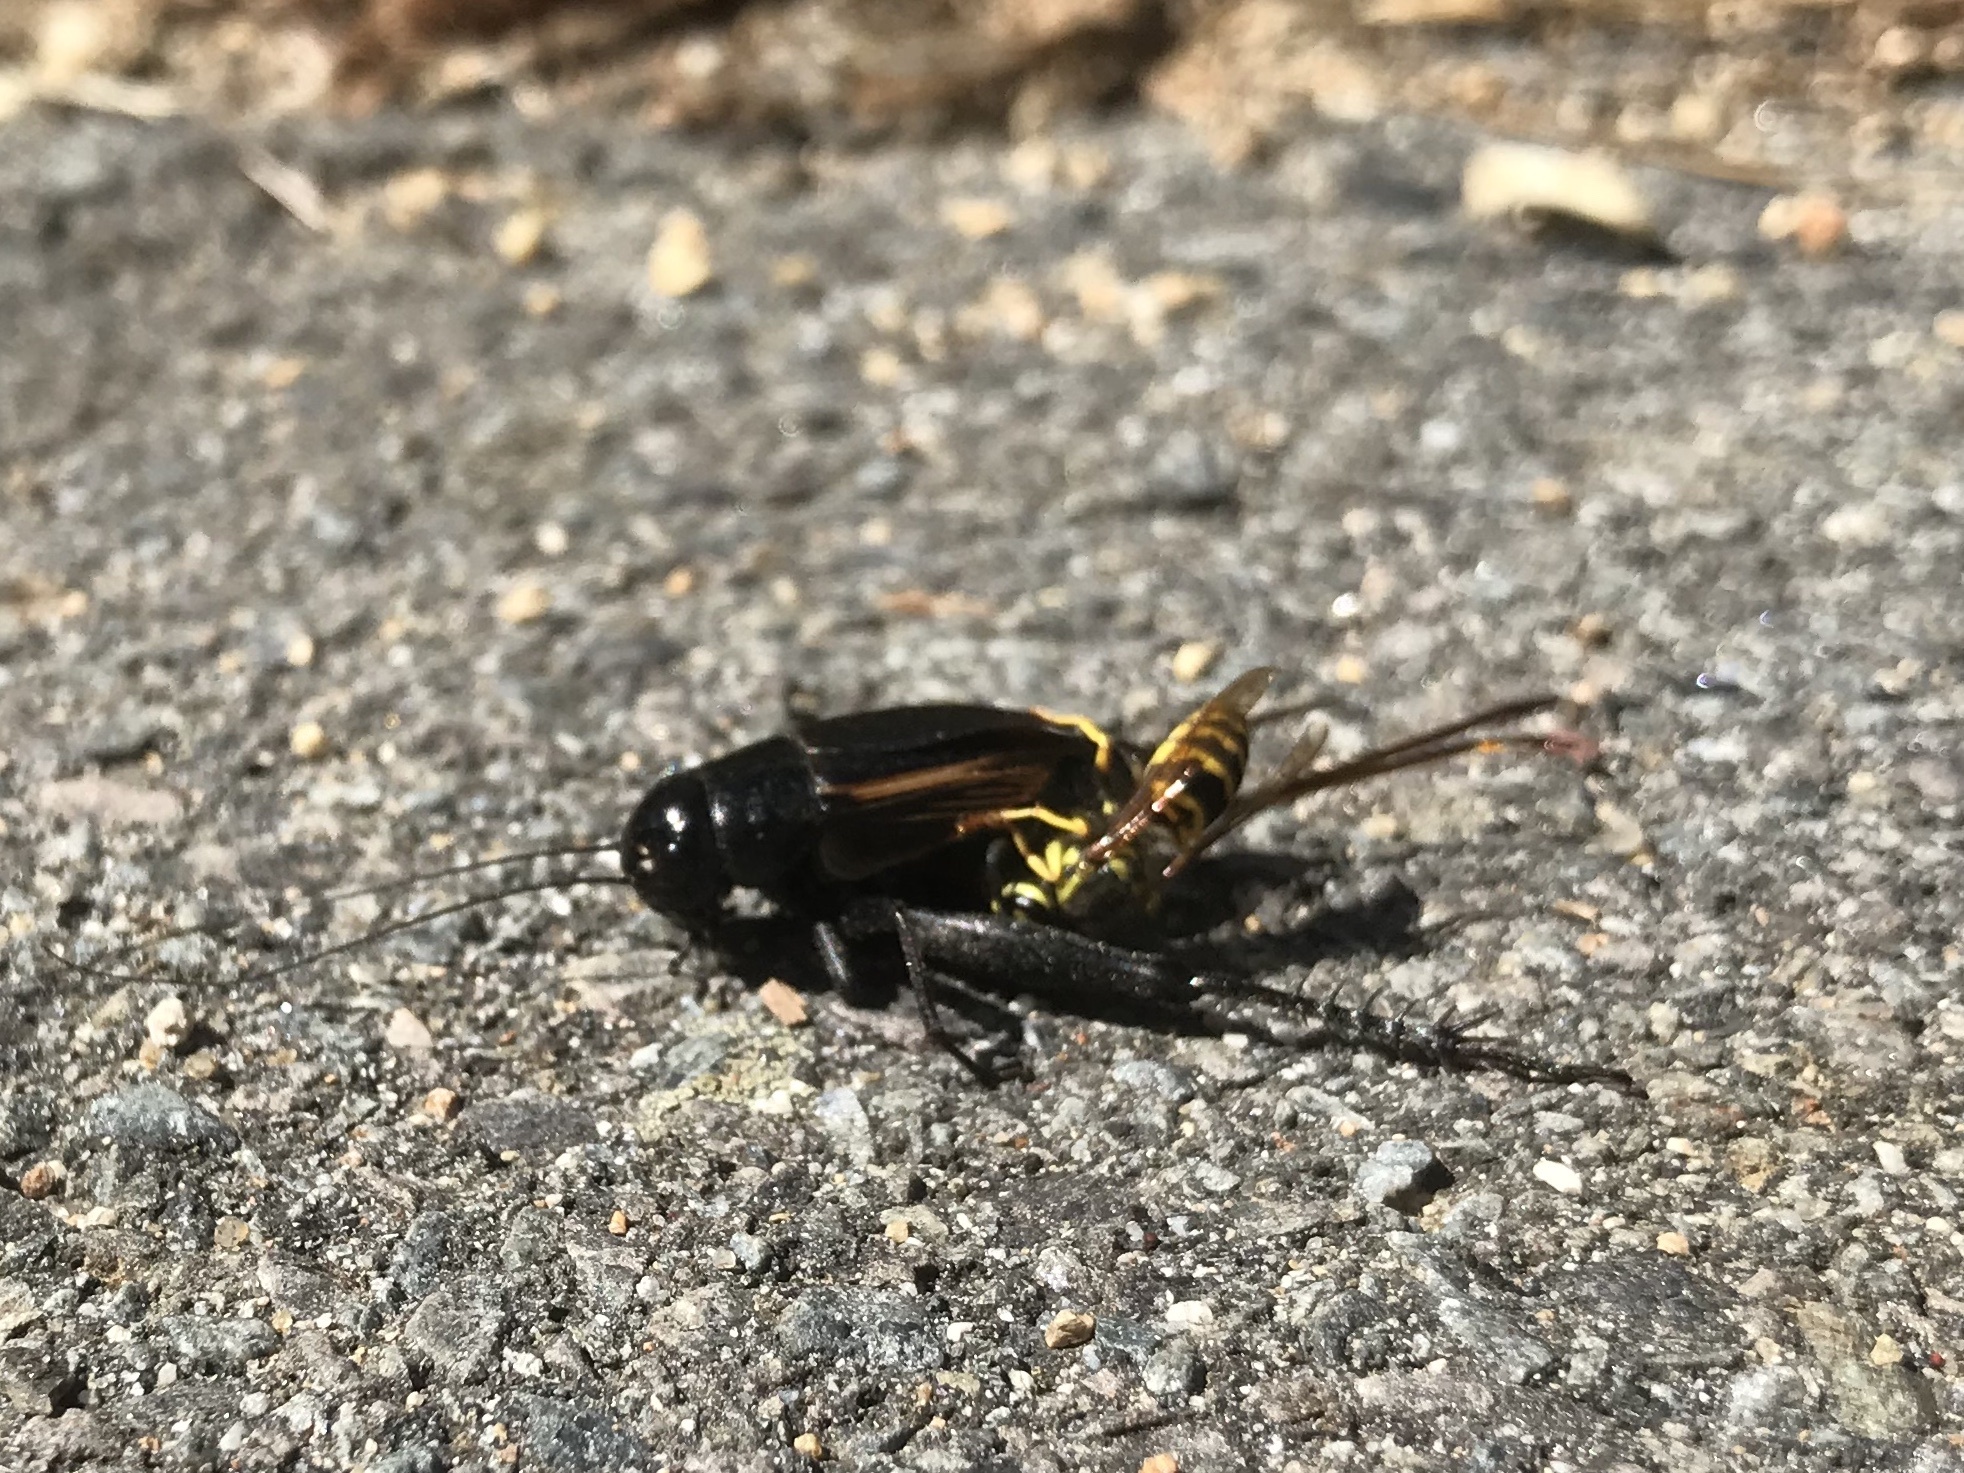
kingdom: Animalia
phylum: Arthropoda
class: Insecta
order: Orthoptera
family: Gryllidae
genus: Gryllus
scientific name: Gryllus pennsylvanicus
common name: Fall field cricket
